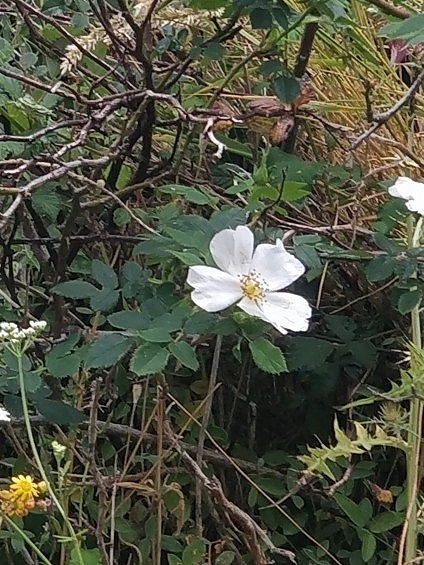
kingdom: Plantae
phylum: Tracheophyta
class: Magnoliopsida
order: Rosales
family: Rosaceae
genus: Rosa
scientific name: Rosa canina
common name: Dog rose
